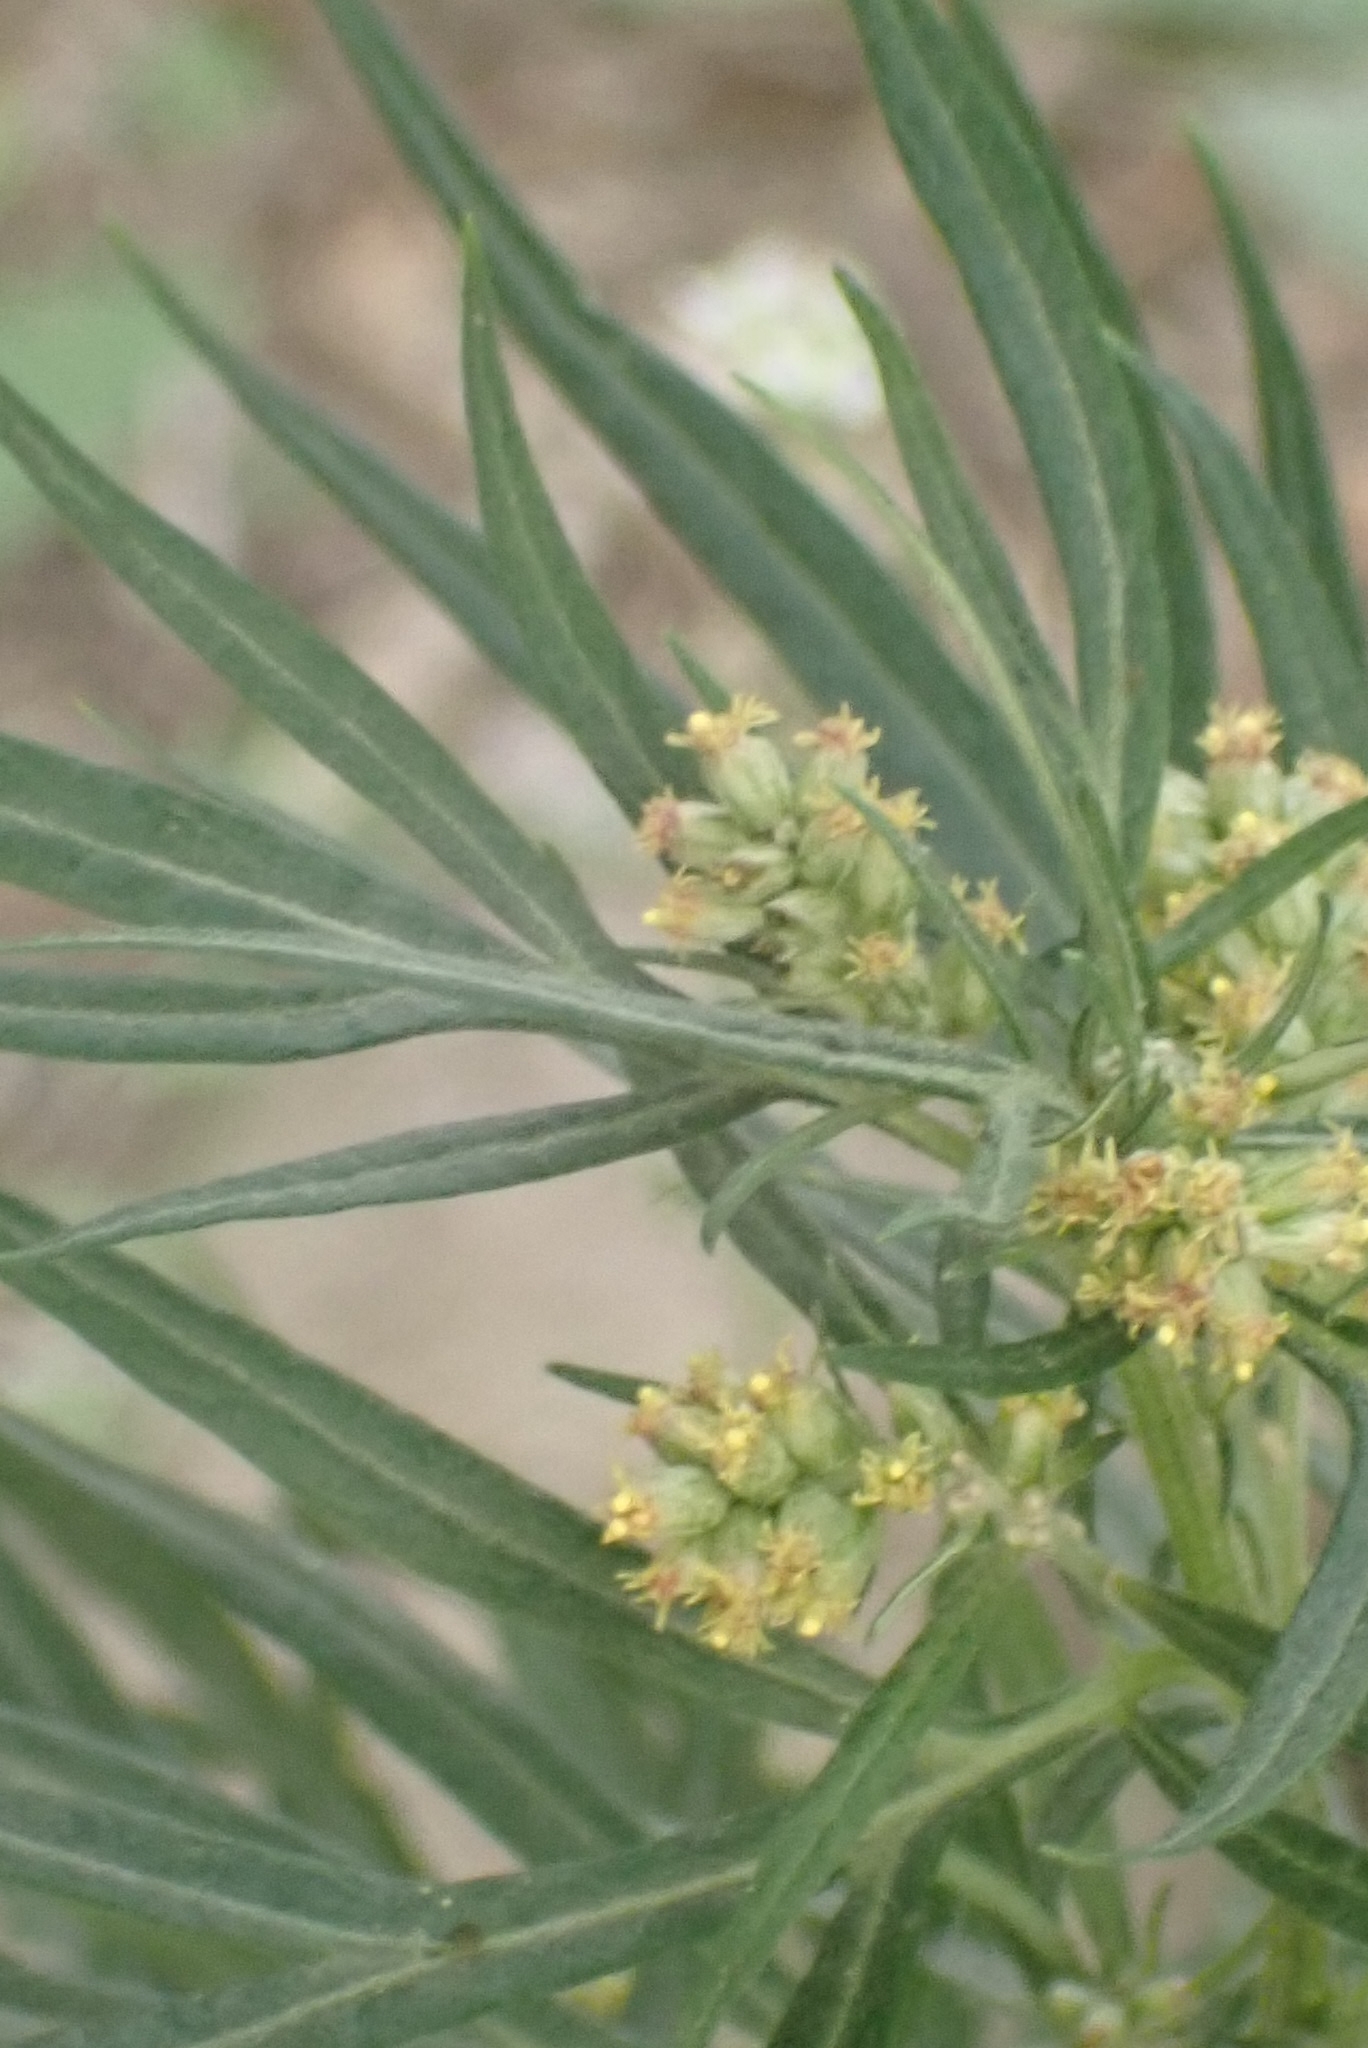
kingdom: Plantae
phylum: Tracheophyta
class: Magnoliopsida
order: Asterales
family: Asteraceae
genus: Artemisia
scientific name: Artemisia vulgaris
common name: Mugwort
